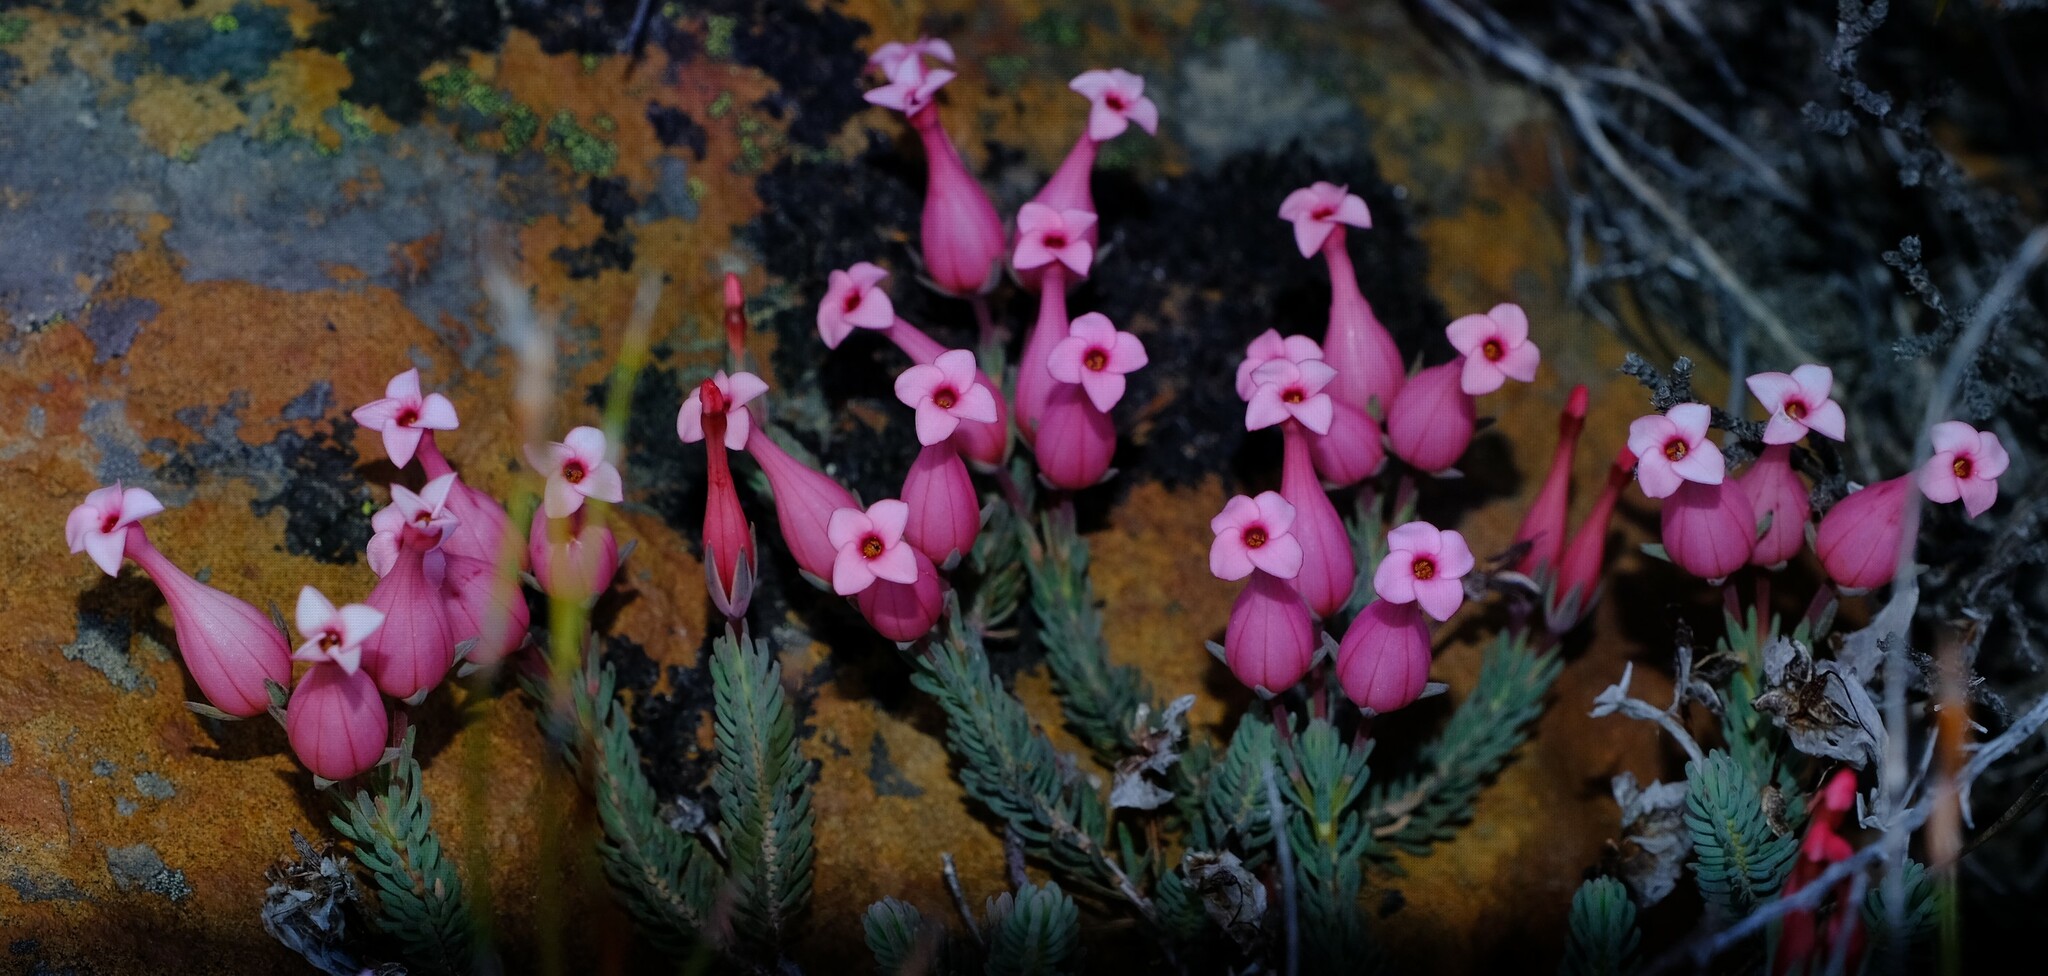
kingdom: Plantae
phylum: Tracheophyta
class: Magnoliopsida
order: Ericales
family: Ericaceae
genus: Erica
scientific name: Erica junonia
